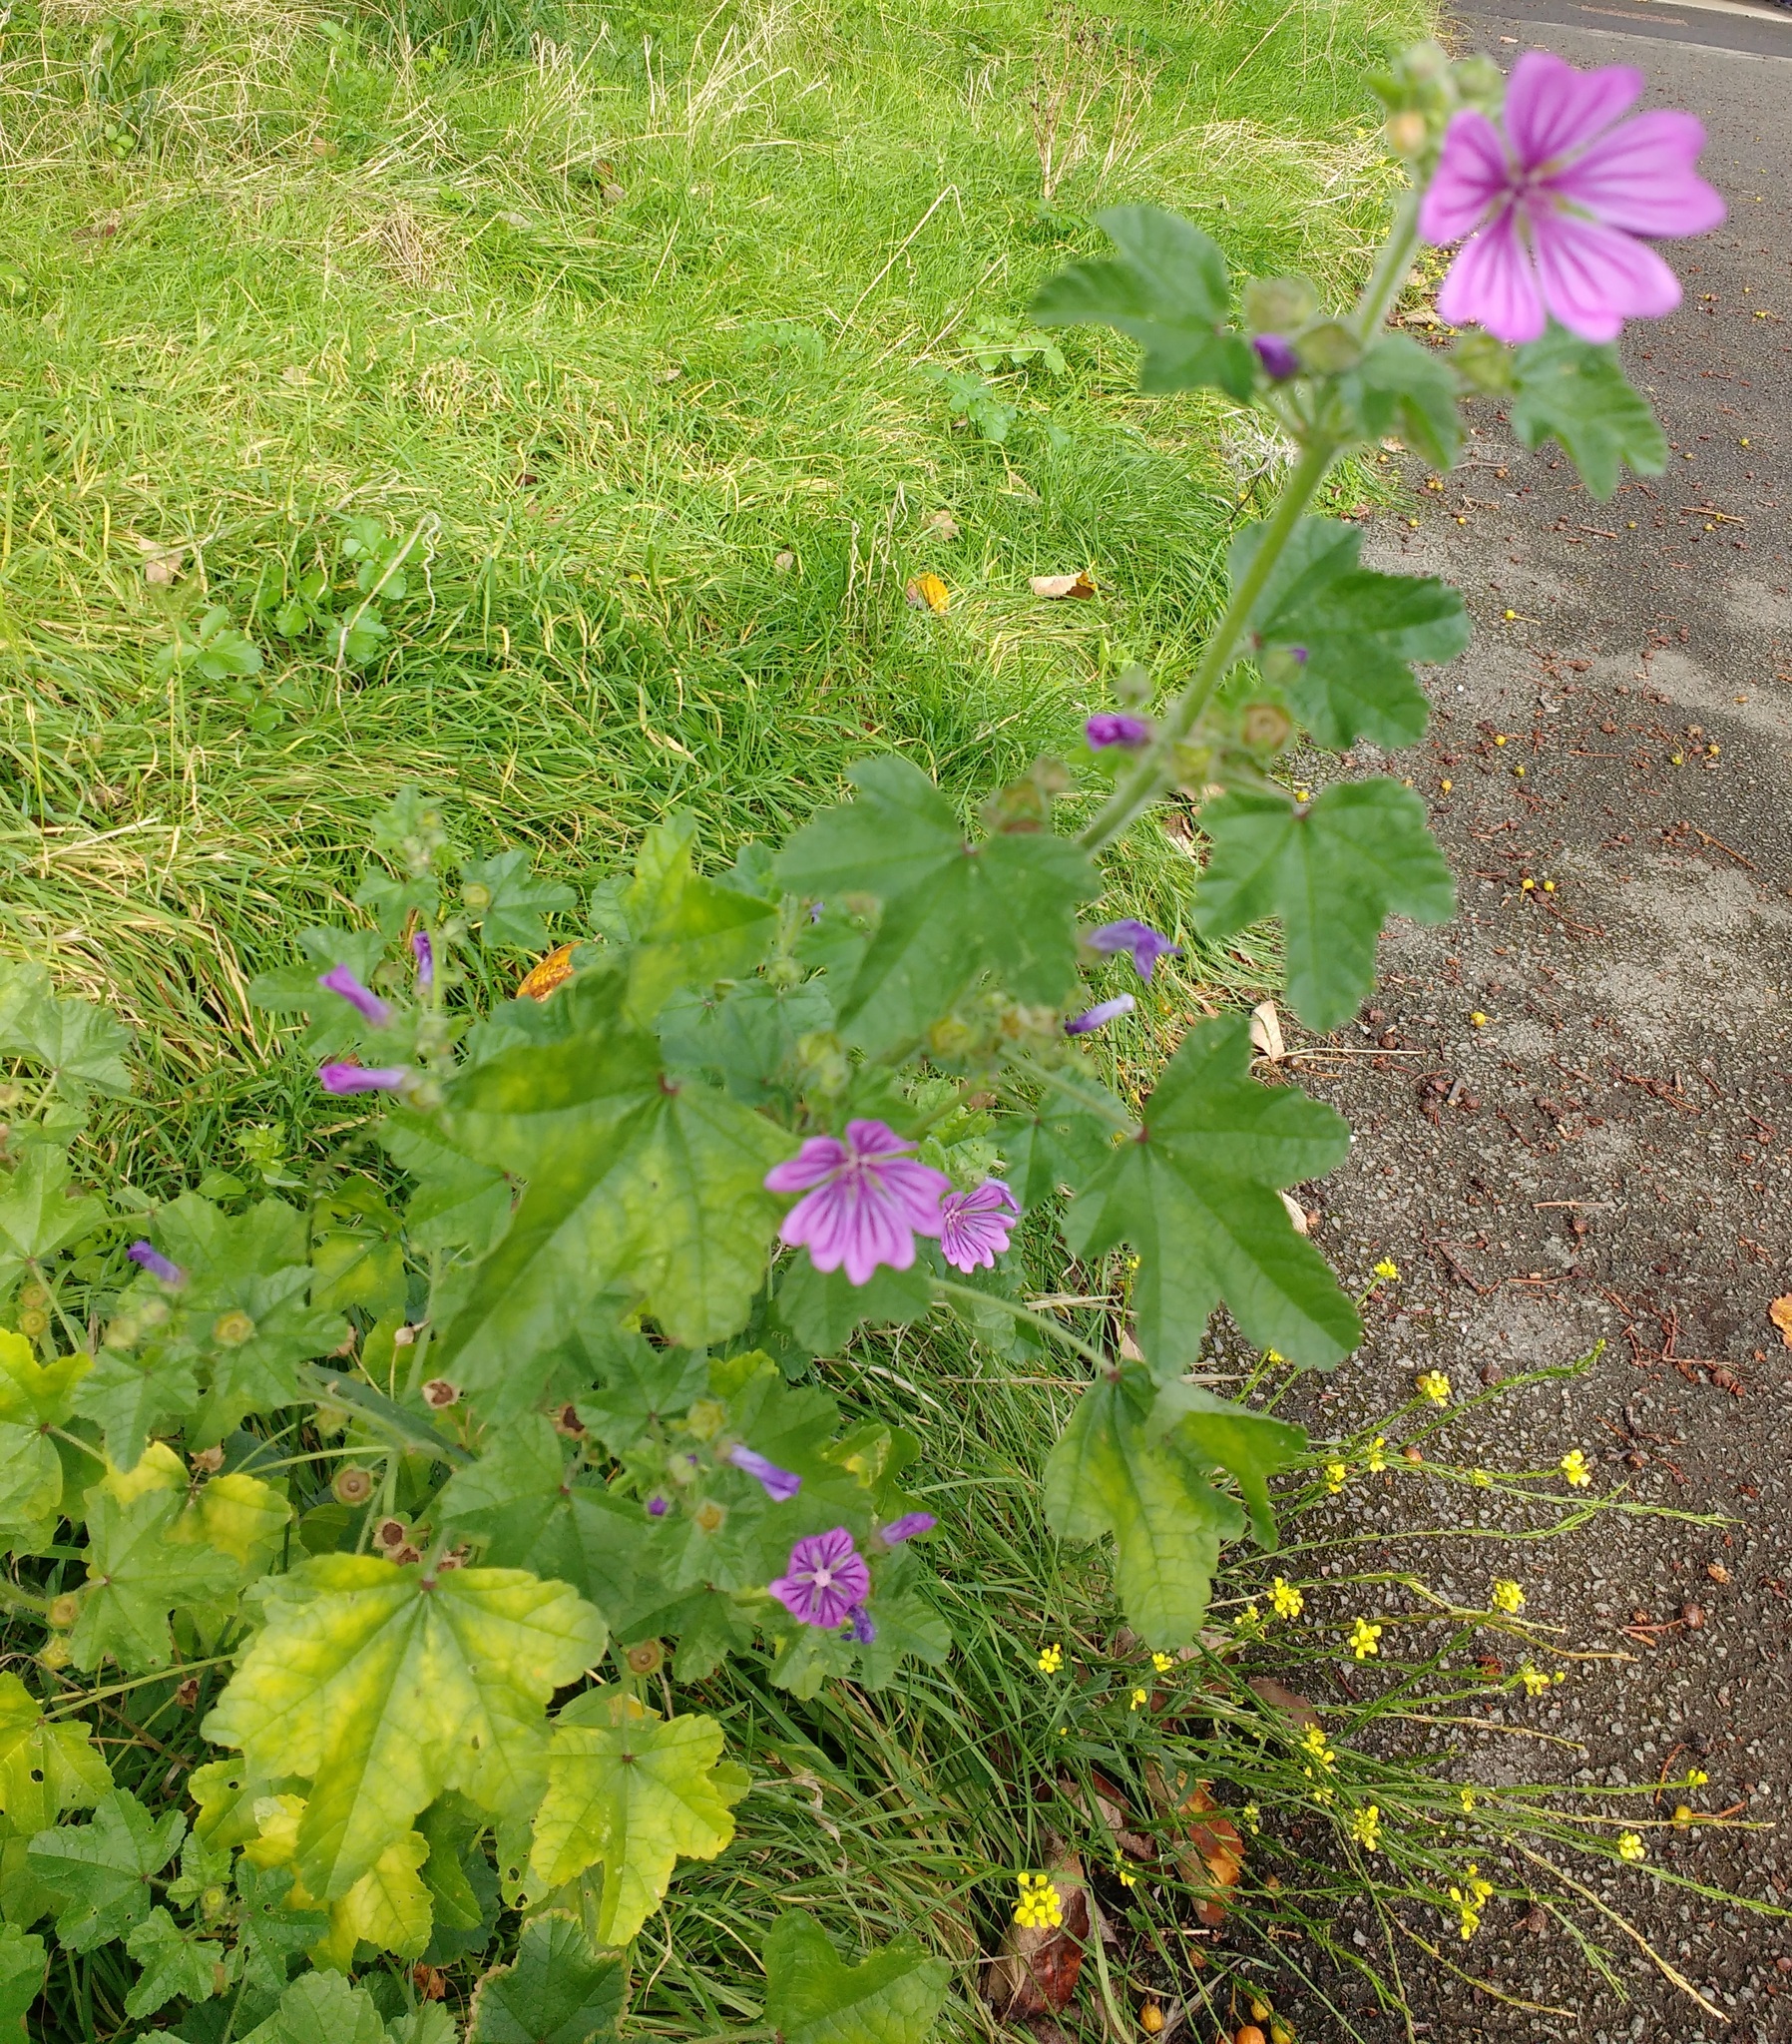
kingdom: Plantae
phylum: Tracheophyta
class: Magnoliopsida
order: Malvales
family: Malvaceae
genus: Malva
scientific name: Malva sylvestris
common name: Common mallow
